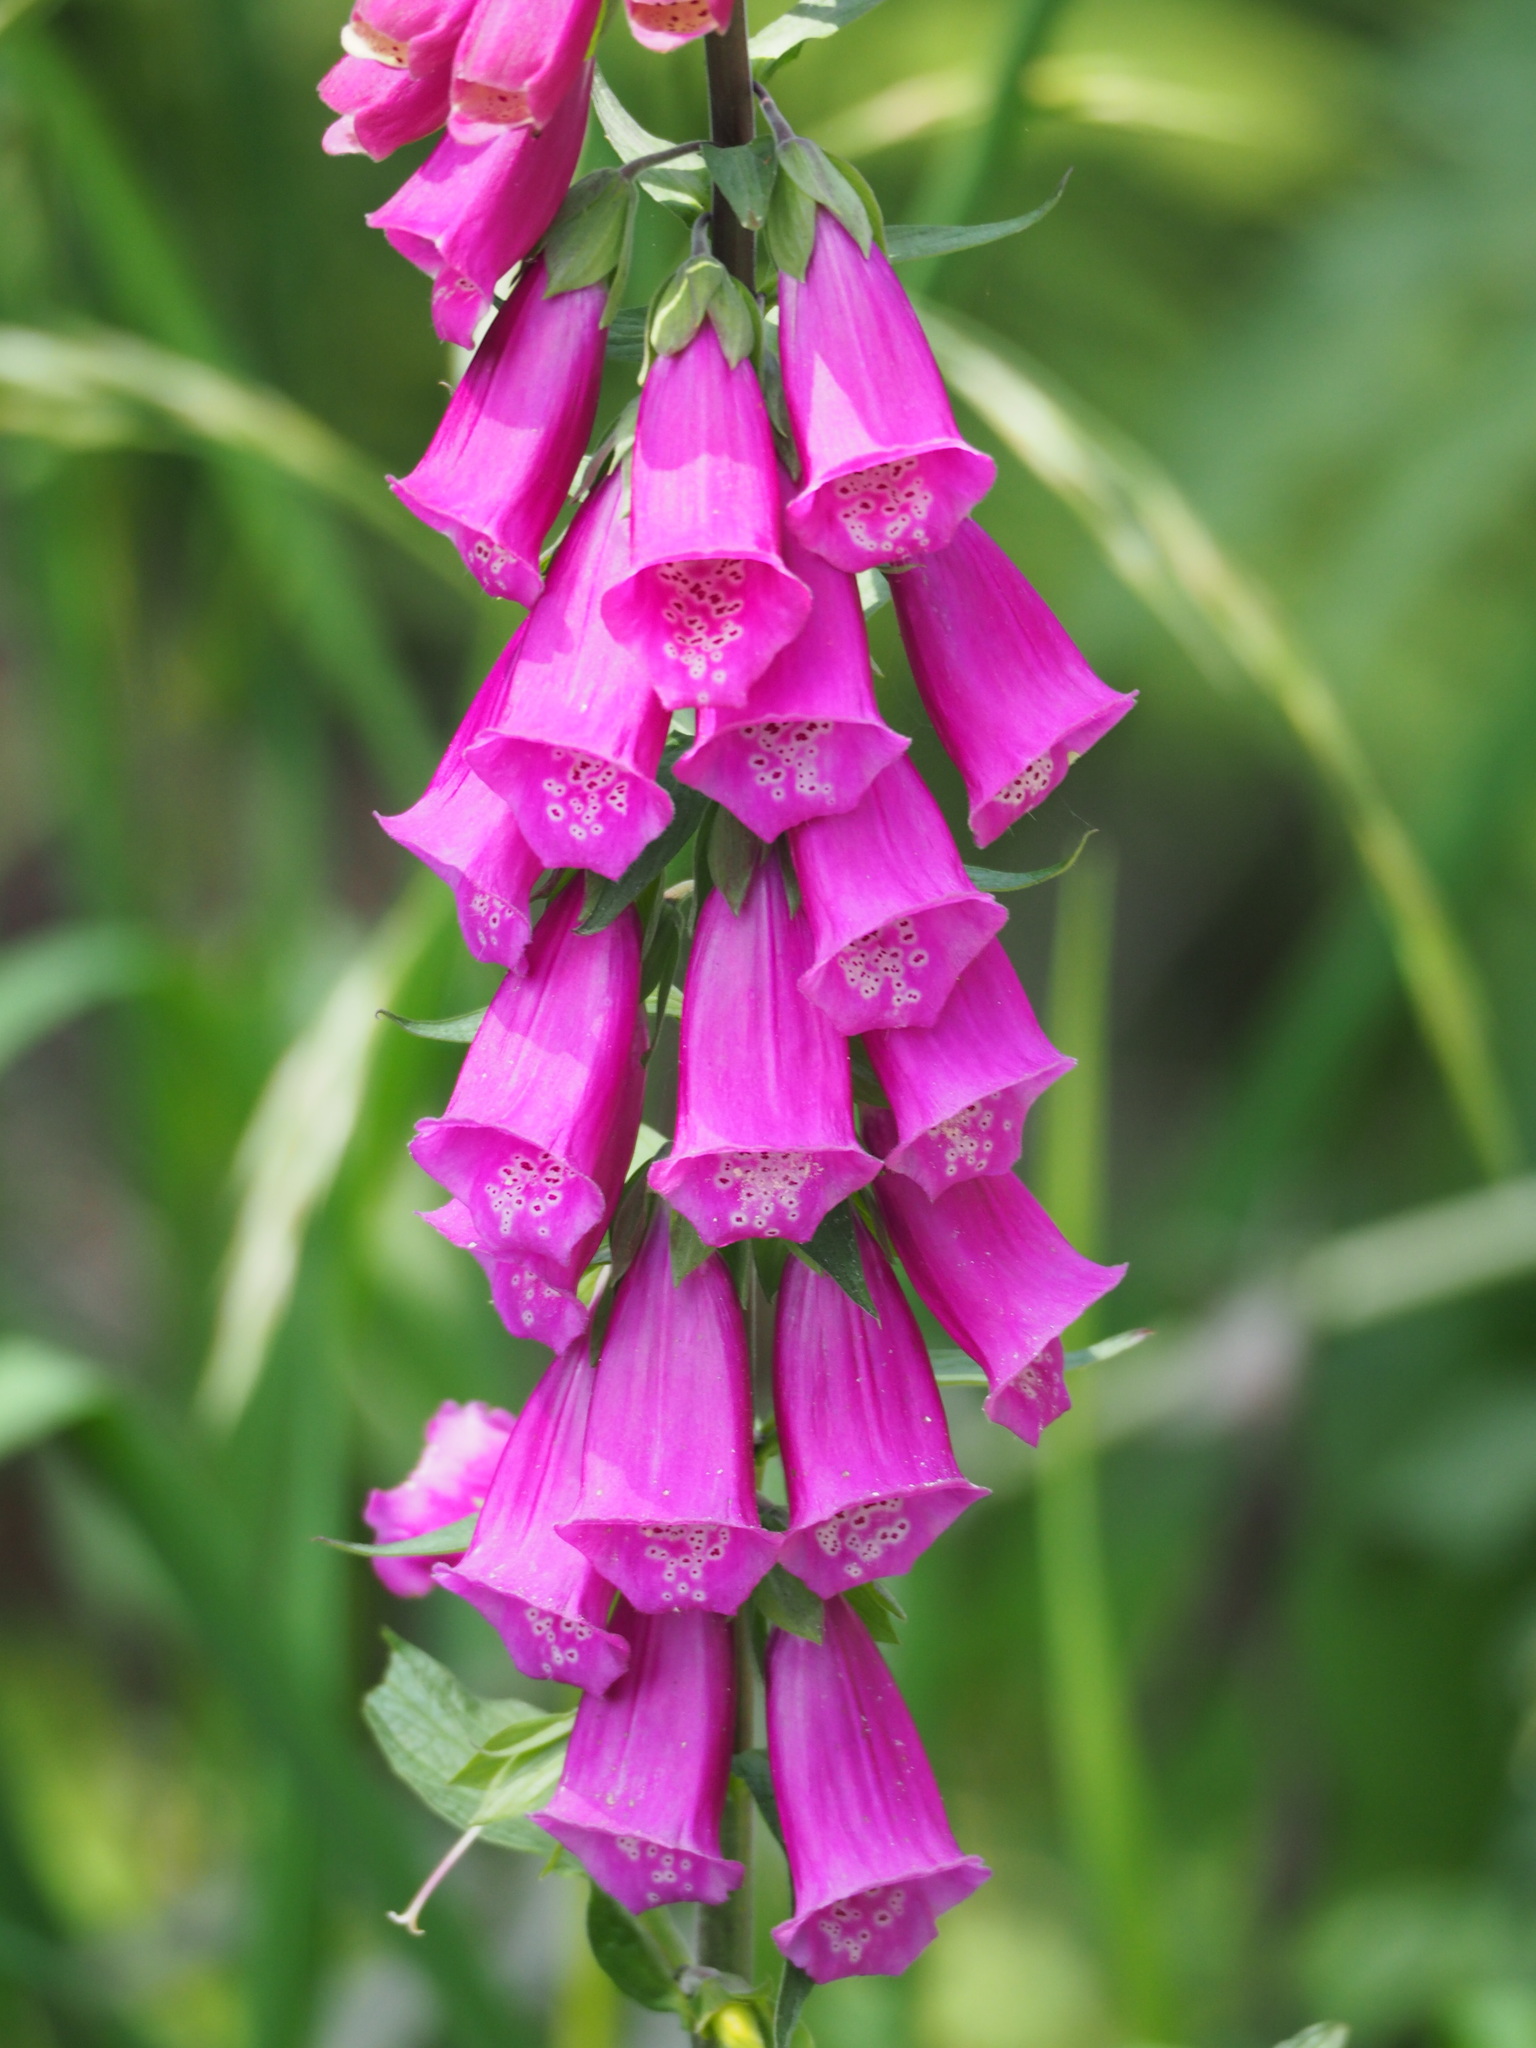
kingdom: Plantae
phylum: Tracheophyta
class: Magnoliopsida
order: Lamiales
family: Plantaginaceae
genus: Digitalis
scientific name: Digitalis purpurea
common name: Foxglove
